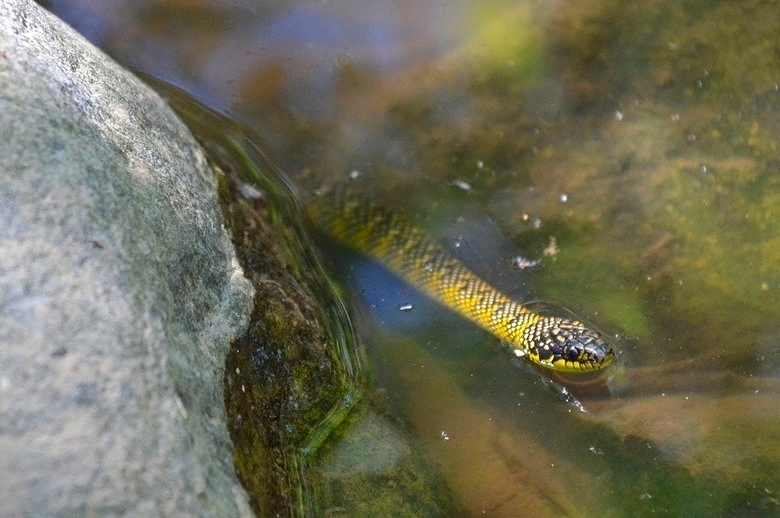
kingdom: Animalia
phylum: Chordata
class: Squamata
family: Colubridae
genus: Erythrolamprus
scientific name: Erythrolamprus poecilogyrus
